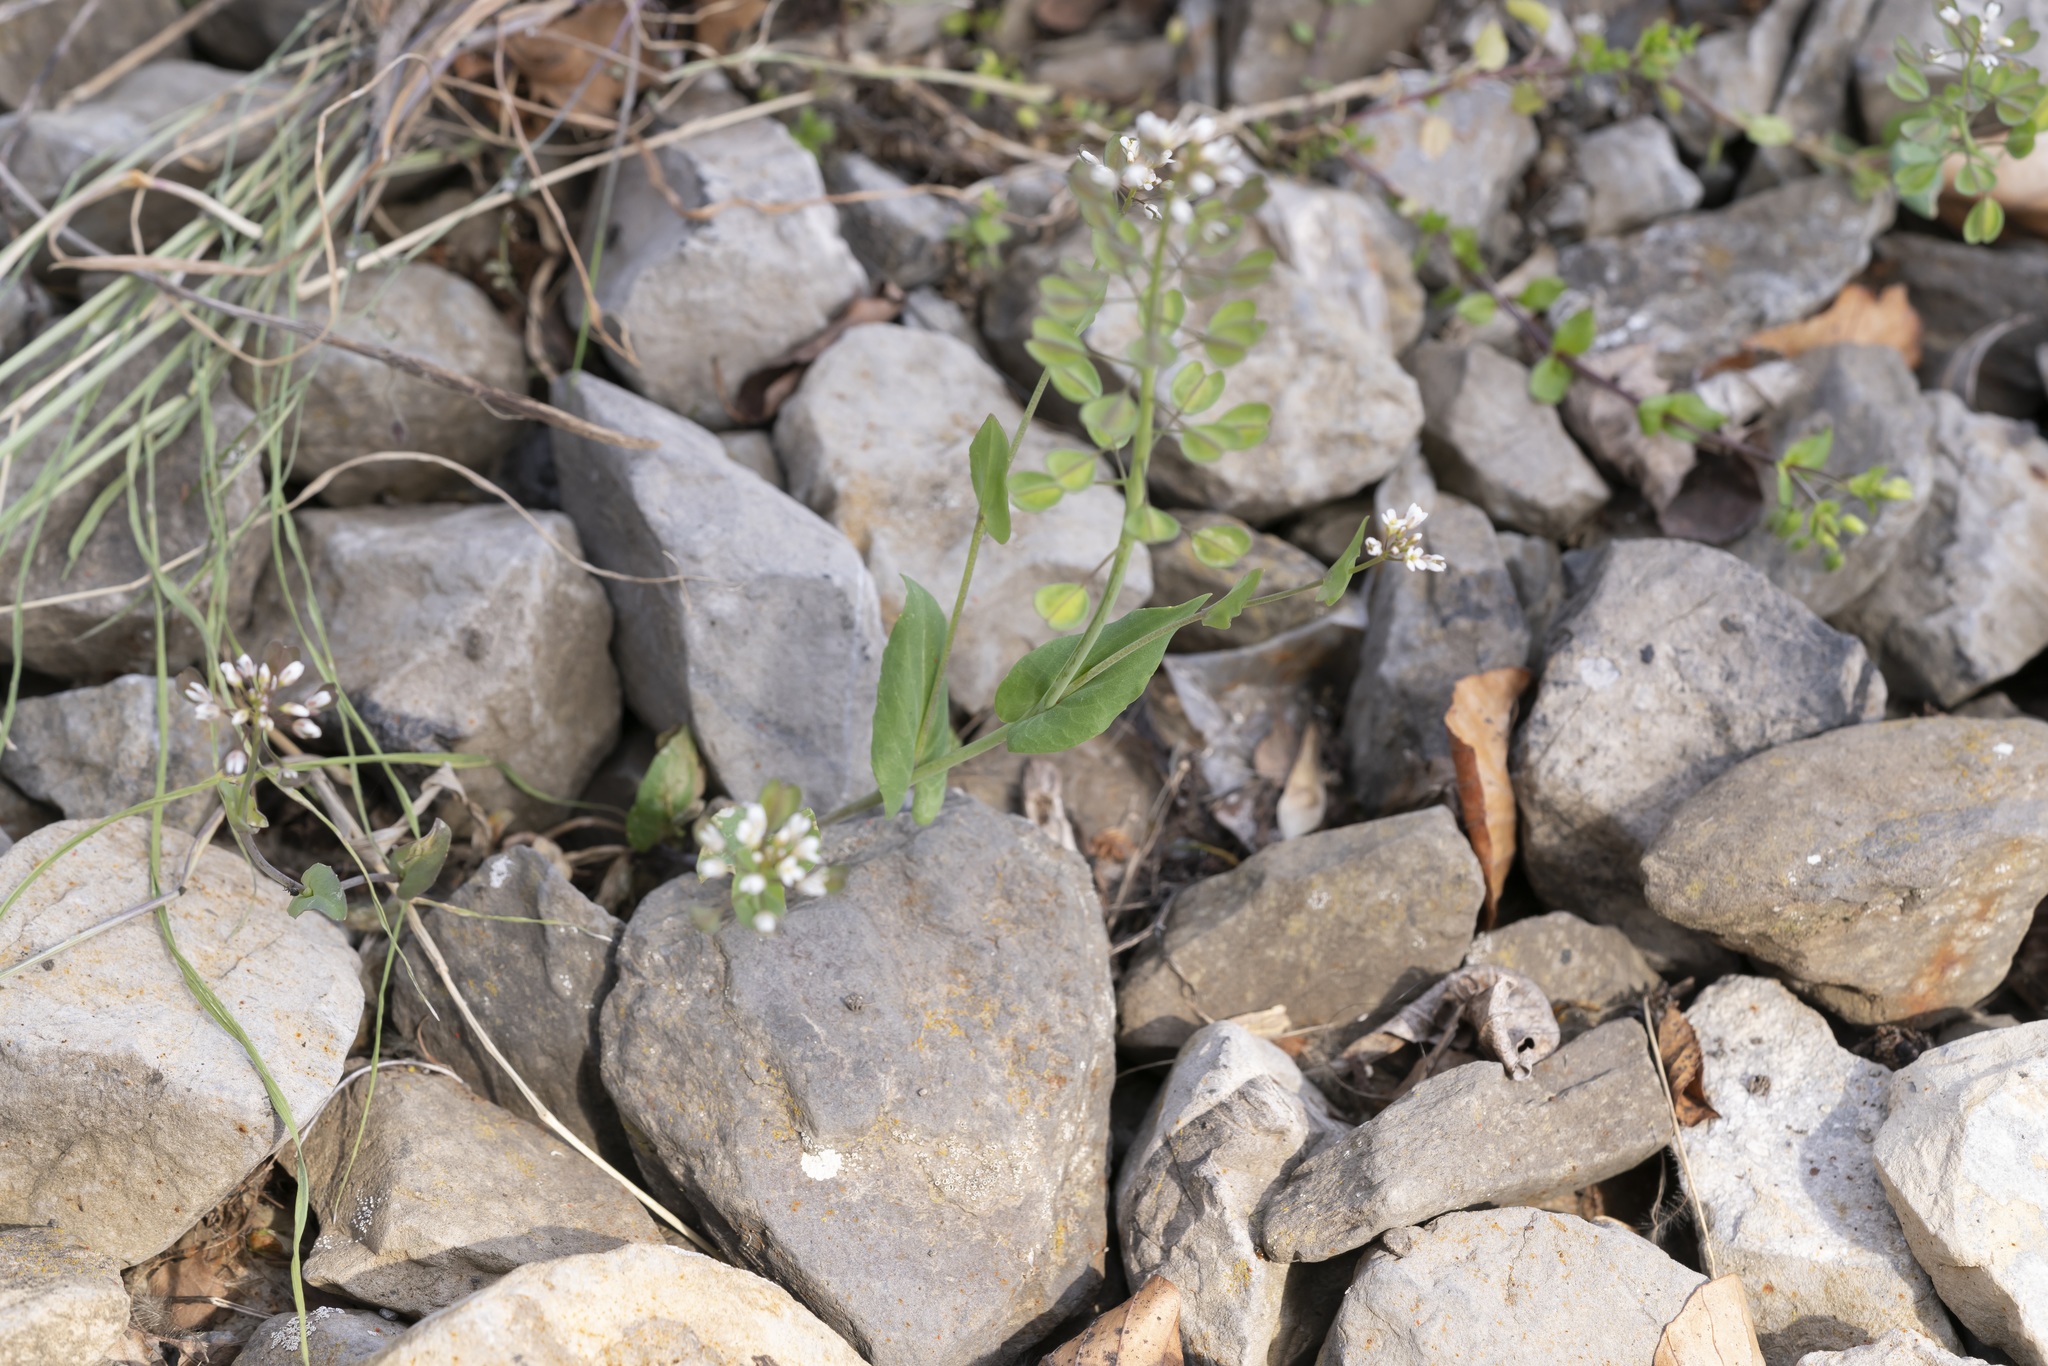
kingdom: Plantae
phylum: Tracheophyta
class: Magnoliopsida
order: Brassicales
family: Brassicaceae
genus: Noccaea
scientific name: Noccaea perfoliata
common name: Perfoliate pennycress
